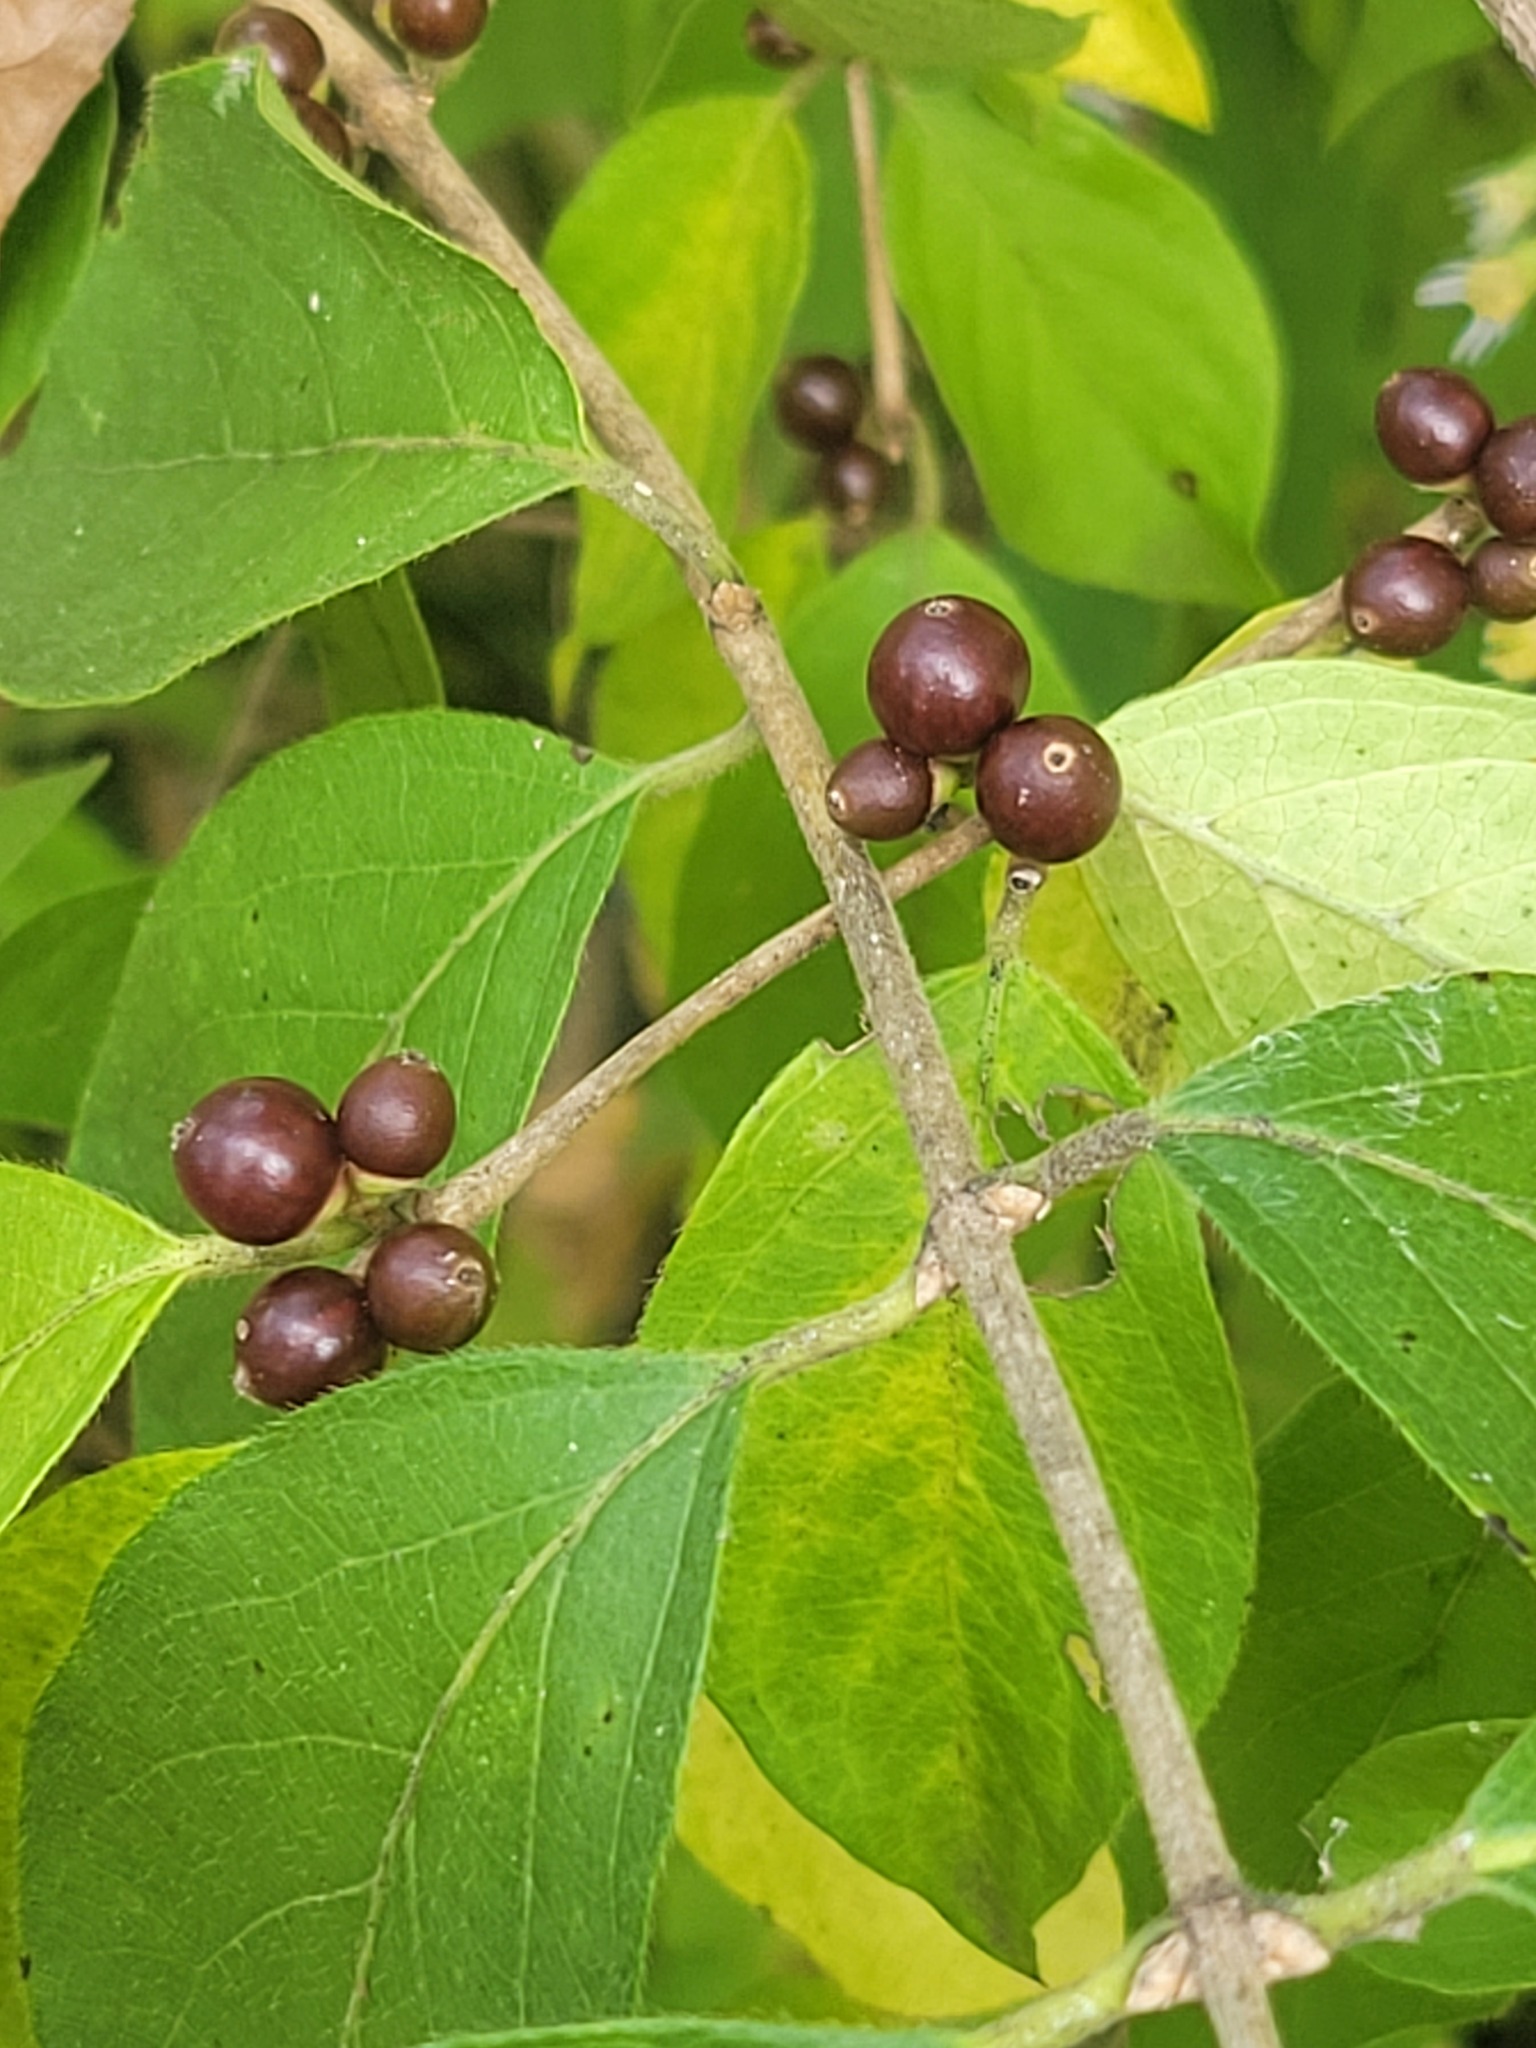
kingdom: Plantae
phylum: Tracheophyta
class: Magnoliopsida
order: Dipsacales
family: Caprifoliaceae
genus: Lonicera
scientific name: Lonicera maackii
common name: Amur honeysuckle
